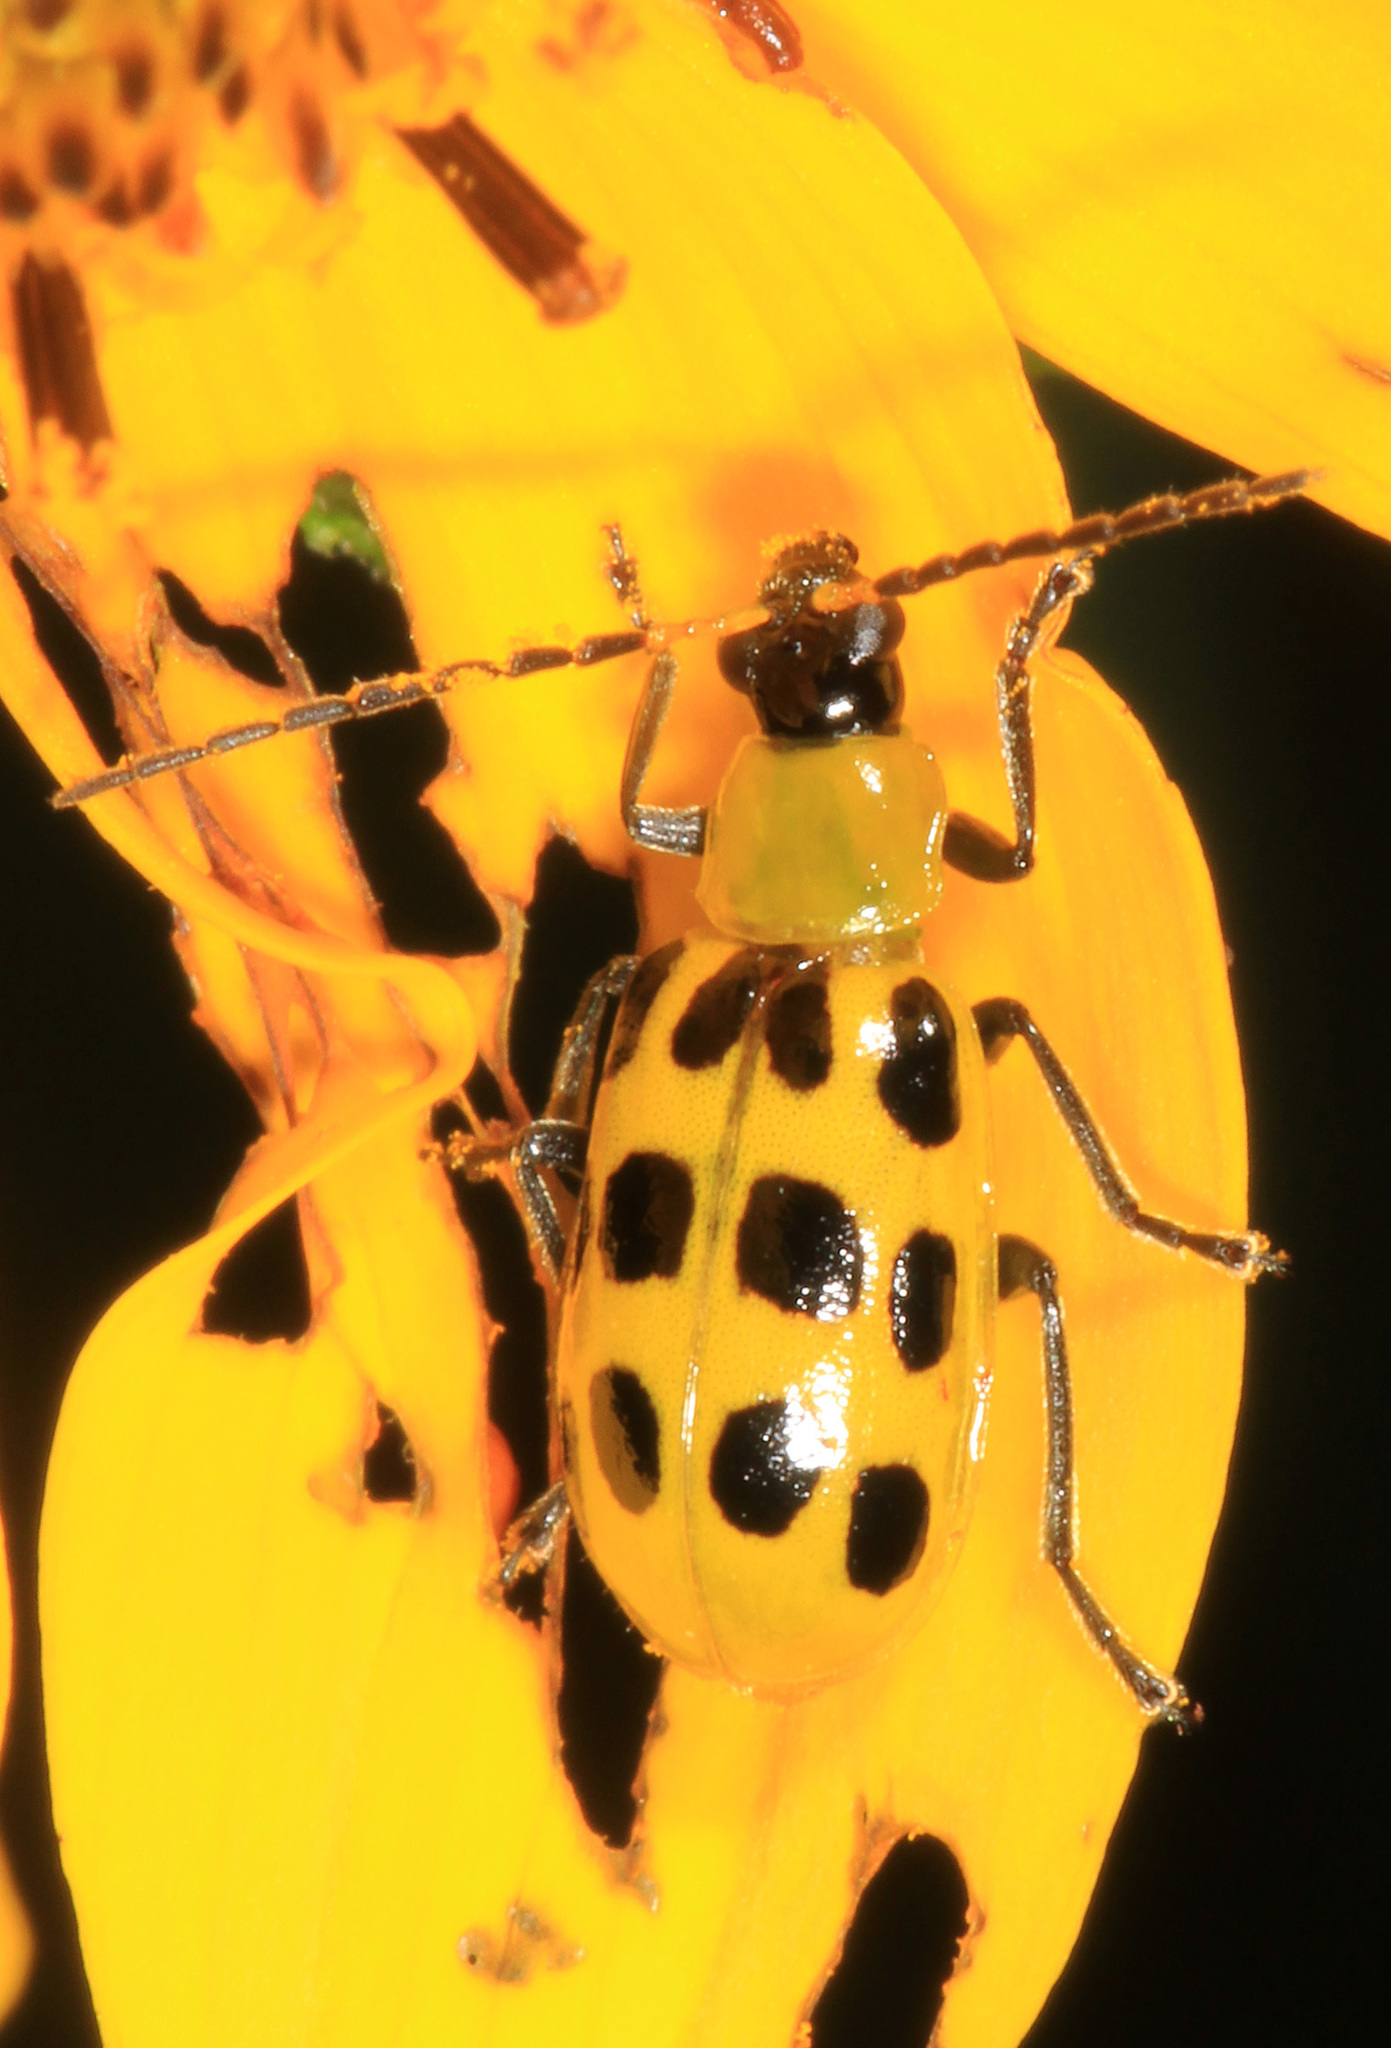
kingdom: Animalia
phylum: Arthropoda
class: Insecta
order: Coleoptera
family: Chrysomelidae
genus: Diabrotica
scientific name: Diabrotica undecimpunctata
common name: Spotted cucumber beetle
